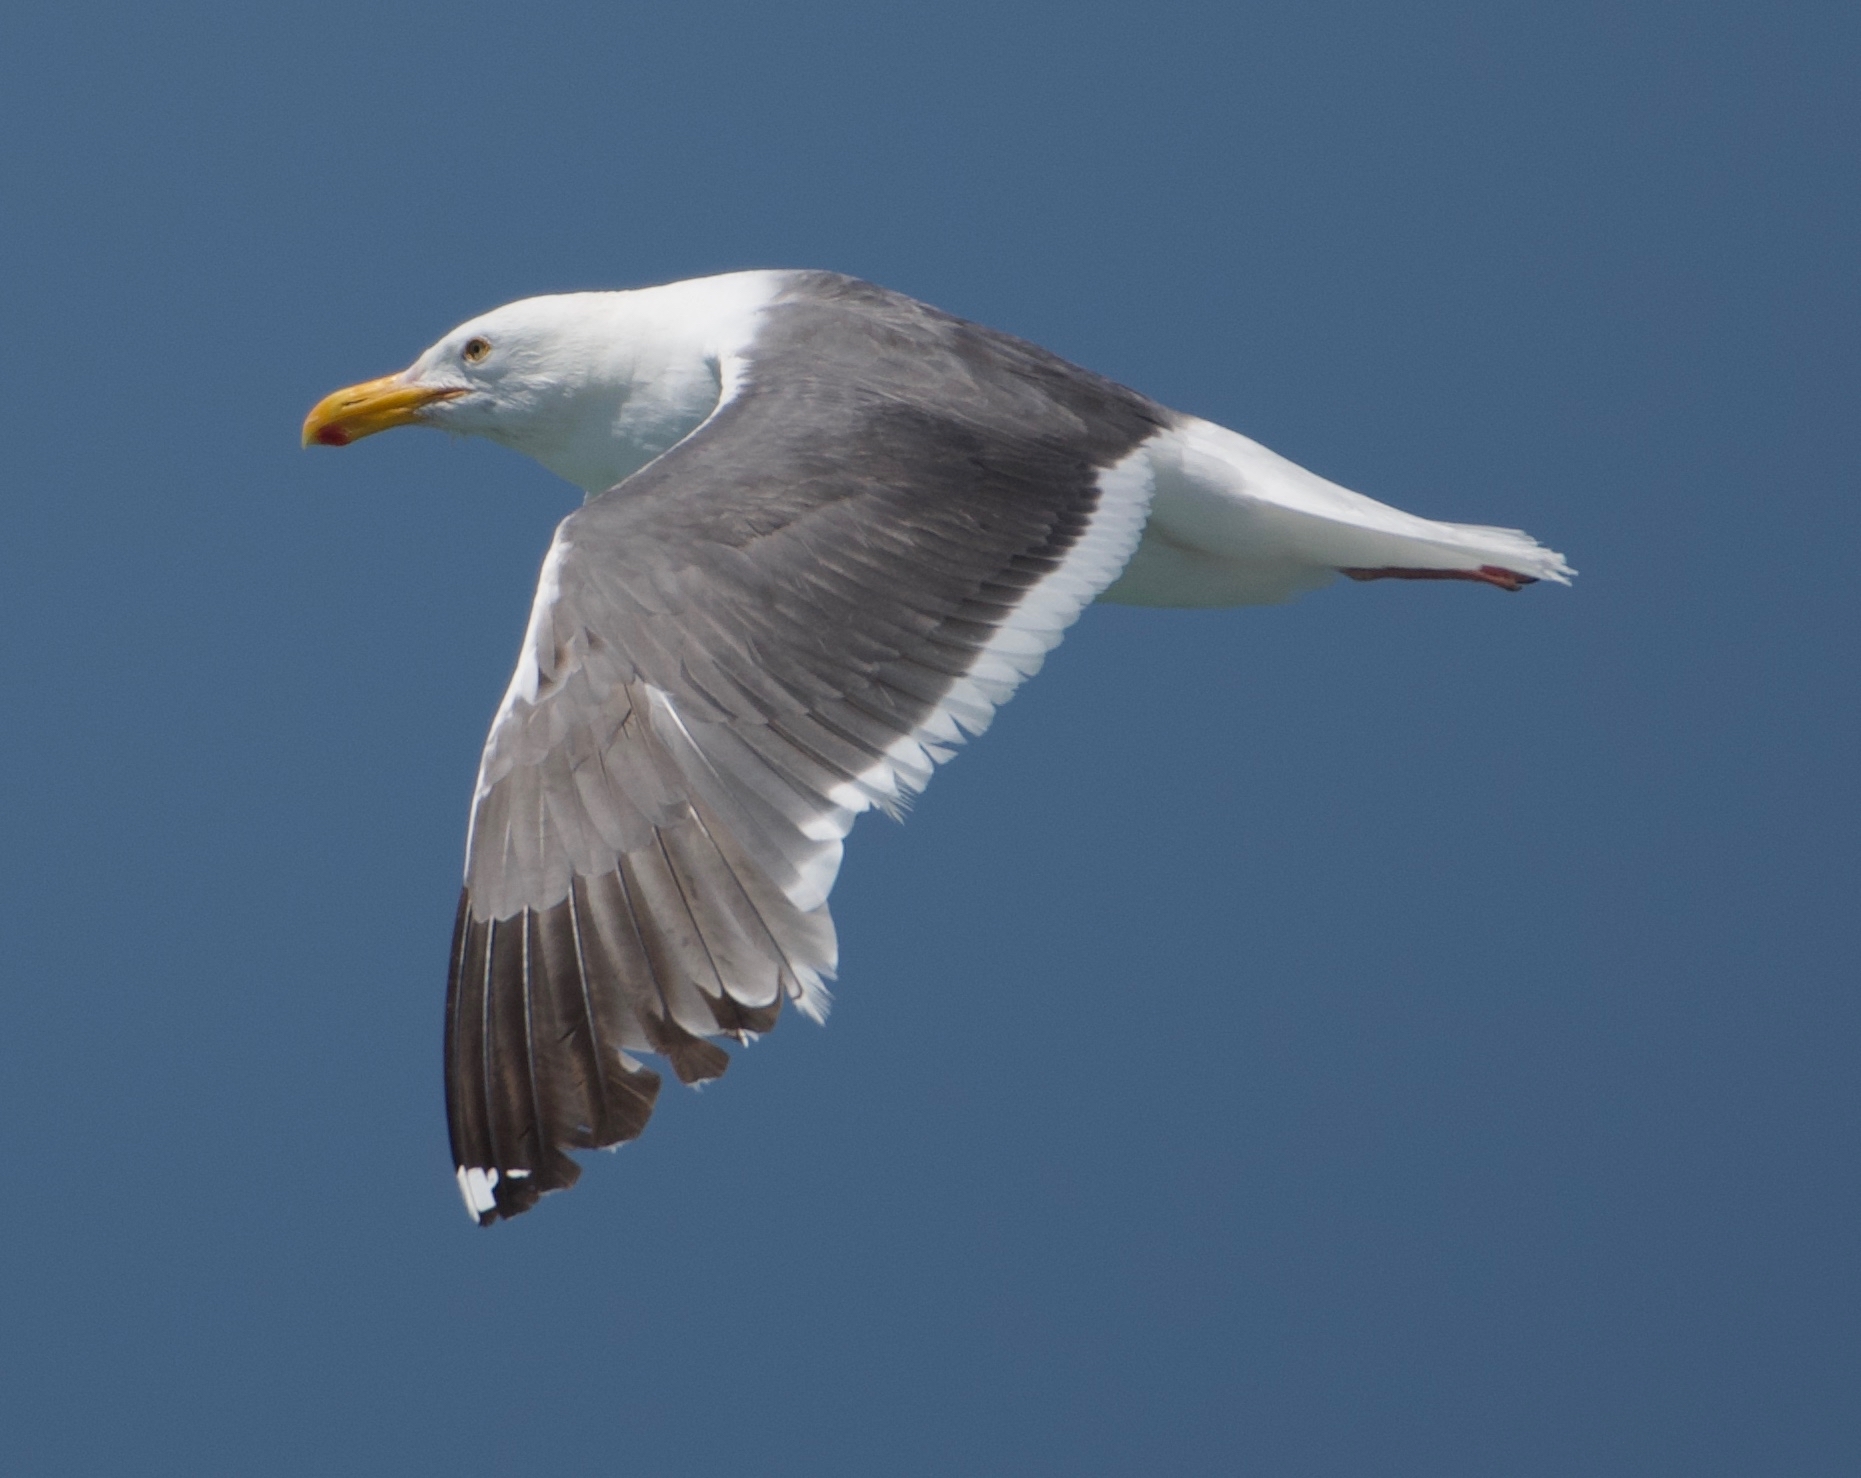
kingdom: Animalia
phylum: Chordata
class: Aves
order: Charadriiformes
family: Laridae
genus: Larus
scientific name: Larus occidentalis
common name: Western gull
